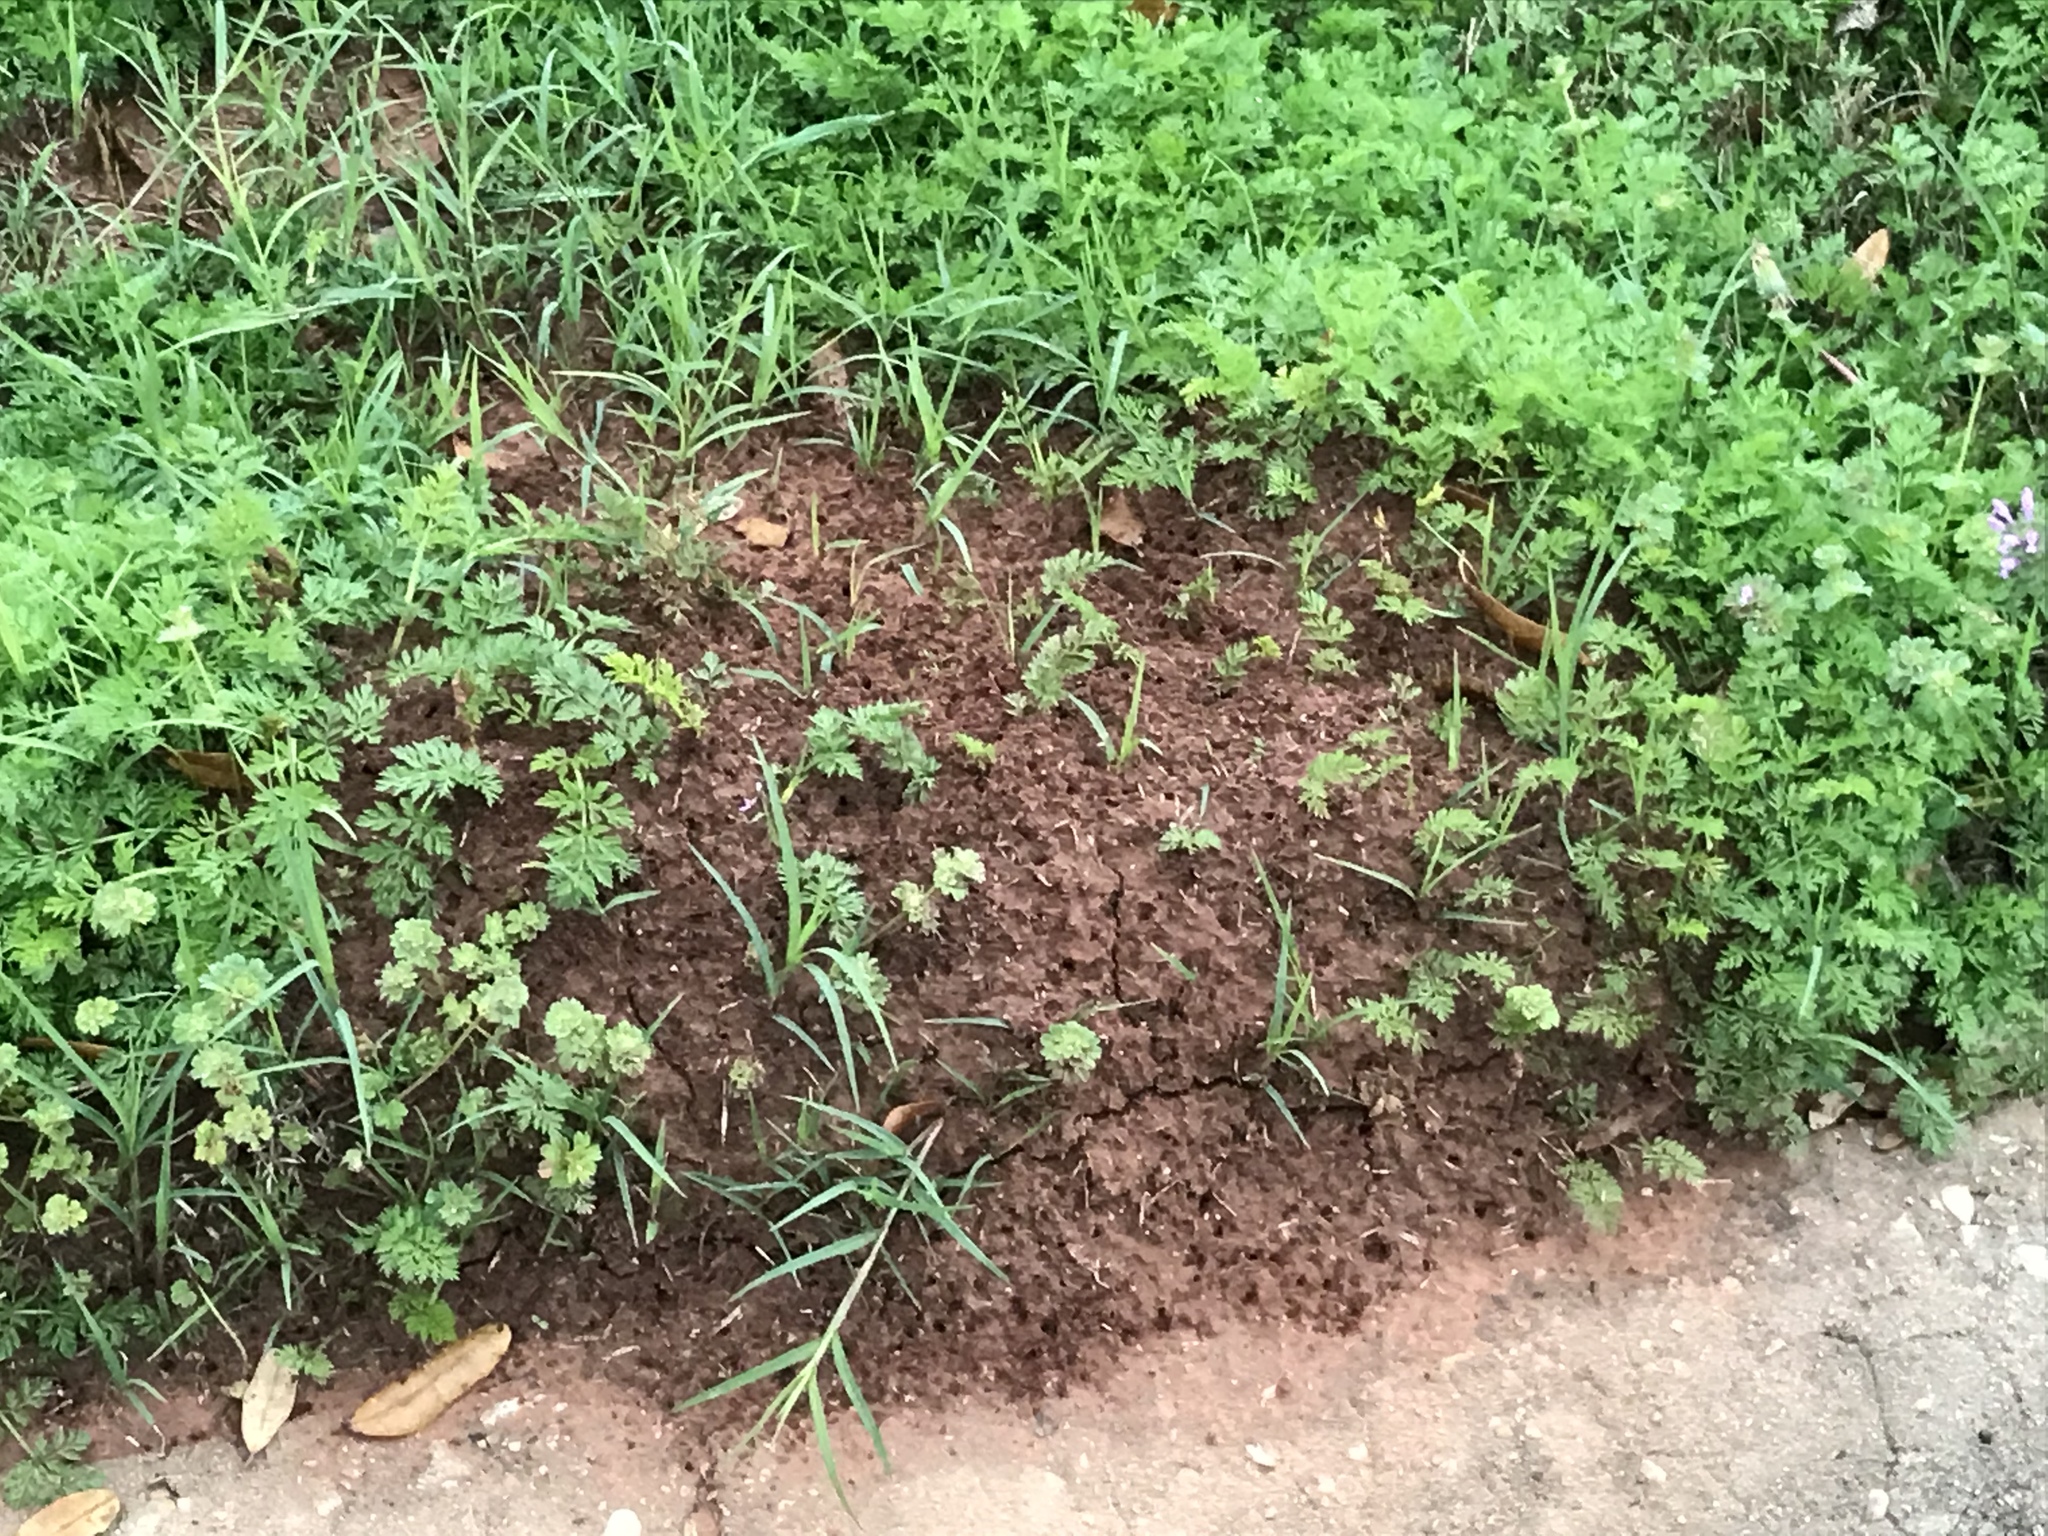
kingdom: Animalia
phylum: Arthropoda
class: Insecta
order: Hymenoptera
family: Formicidae
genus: Solenopsis
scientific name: Solenopsis invicta
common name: Red imported fire ant
